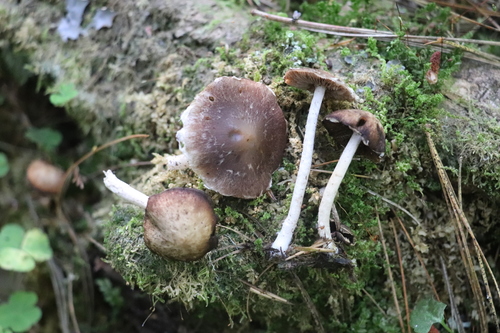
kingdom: Fungi
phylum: Basidiomycota
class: Agaricomycetes
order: Agaricales
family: Psathyrellaceae
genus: Psathyrella
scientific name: Psathyrella
